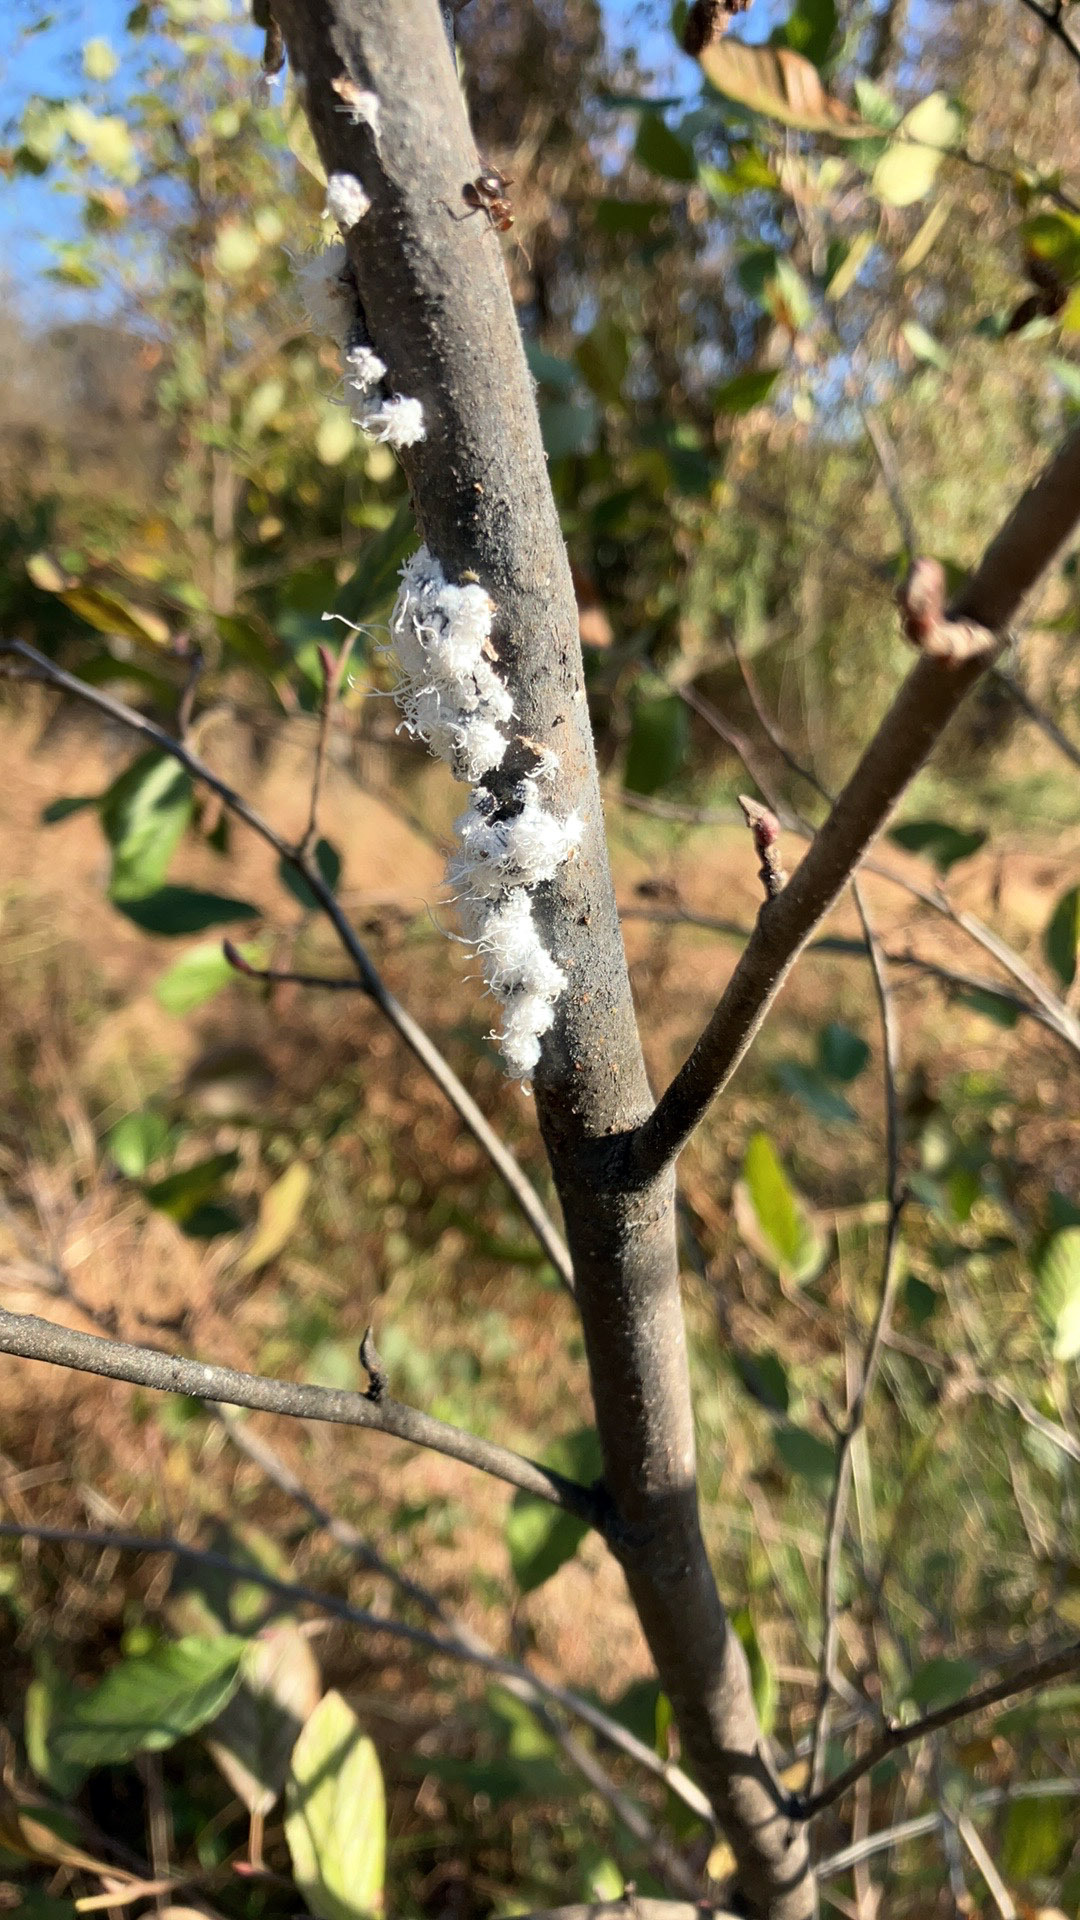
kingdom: Animalia
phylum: Arthropoda
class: Insecta
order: Hemiptera
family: Aphididae
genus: Prociphilus
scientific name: Prociphilus tessellatus
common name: Woolly alder aphid
